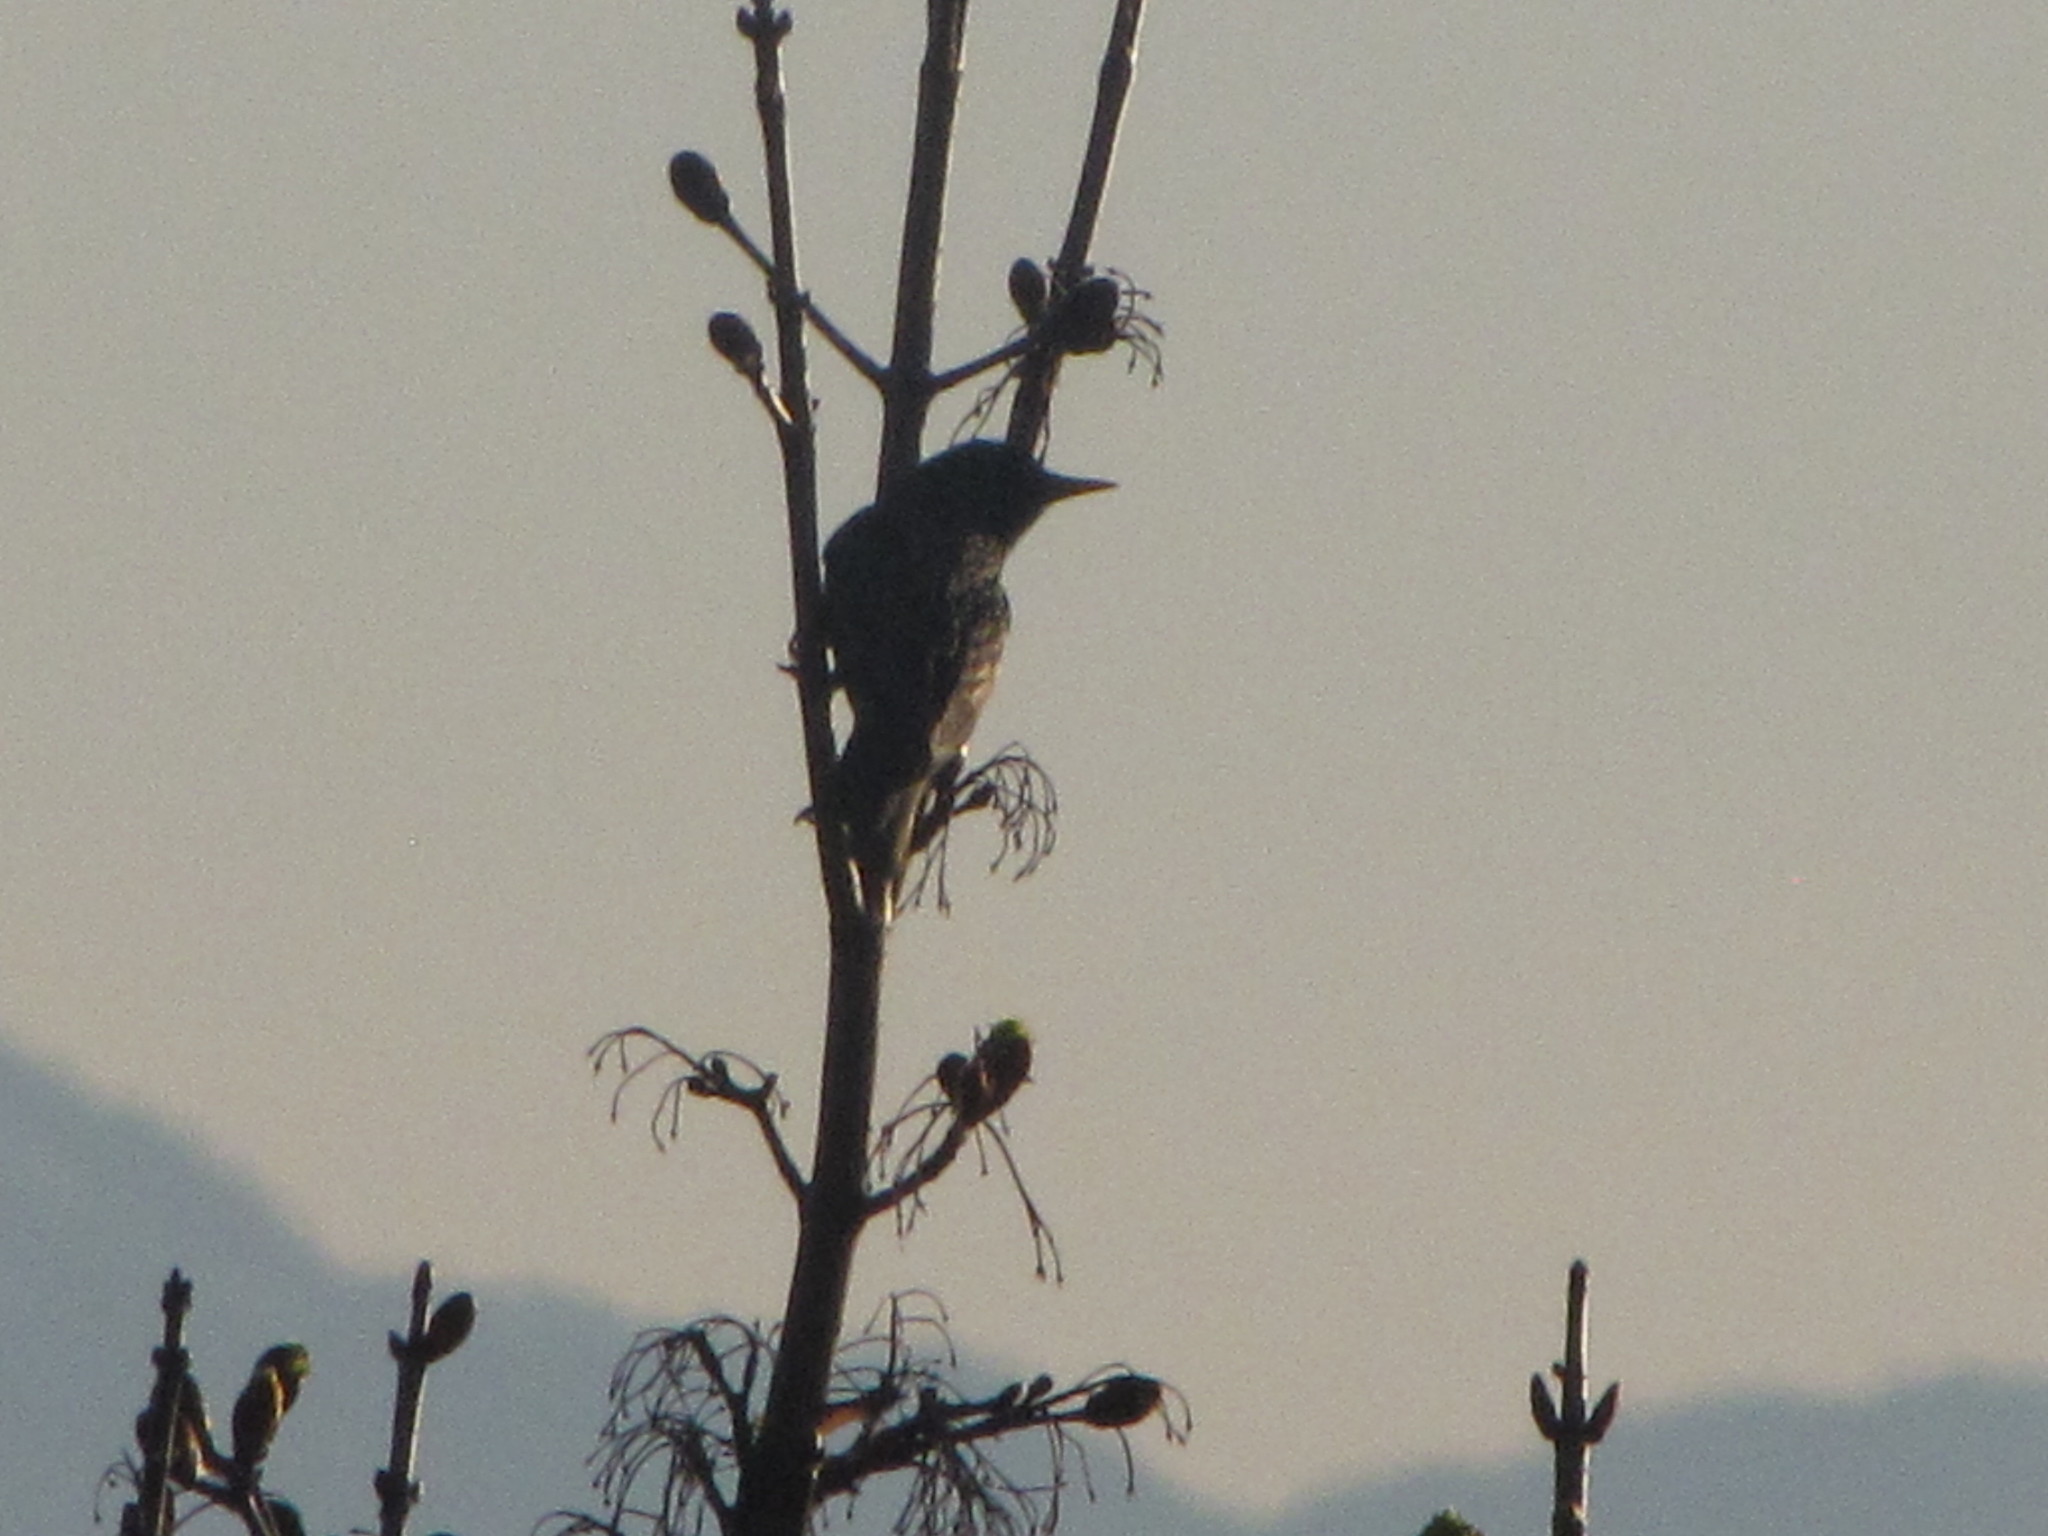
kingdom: Animalia
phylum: Chordata
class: Aves
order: Passeriformes
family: Sturnidae
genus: Sturnus
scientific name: Sturnus vulgaris
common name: Common starling
